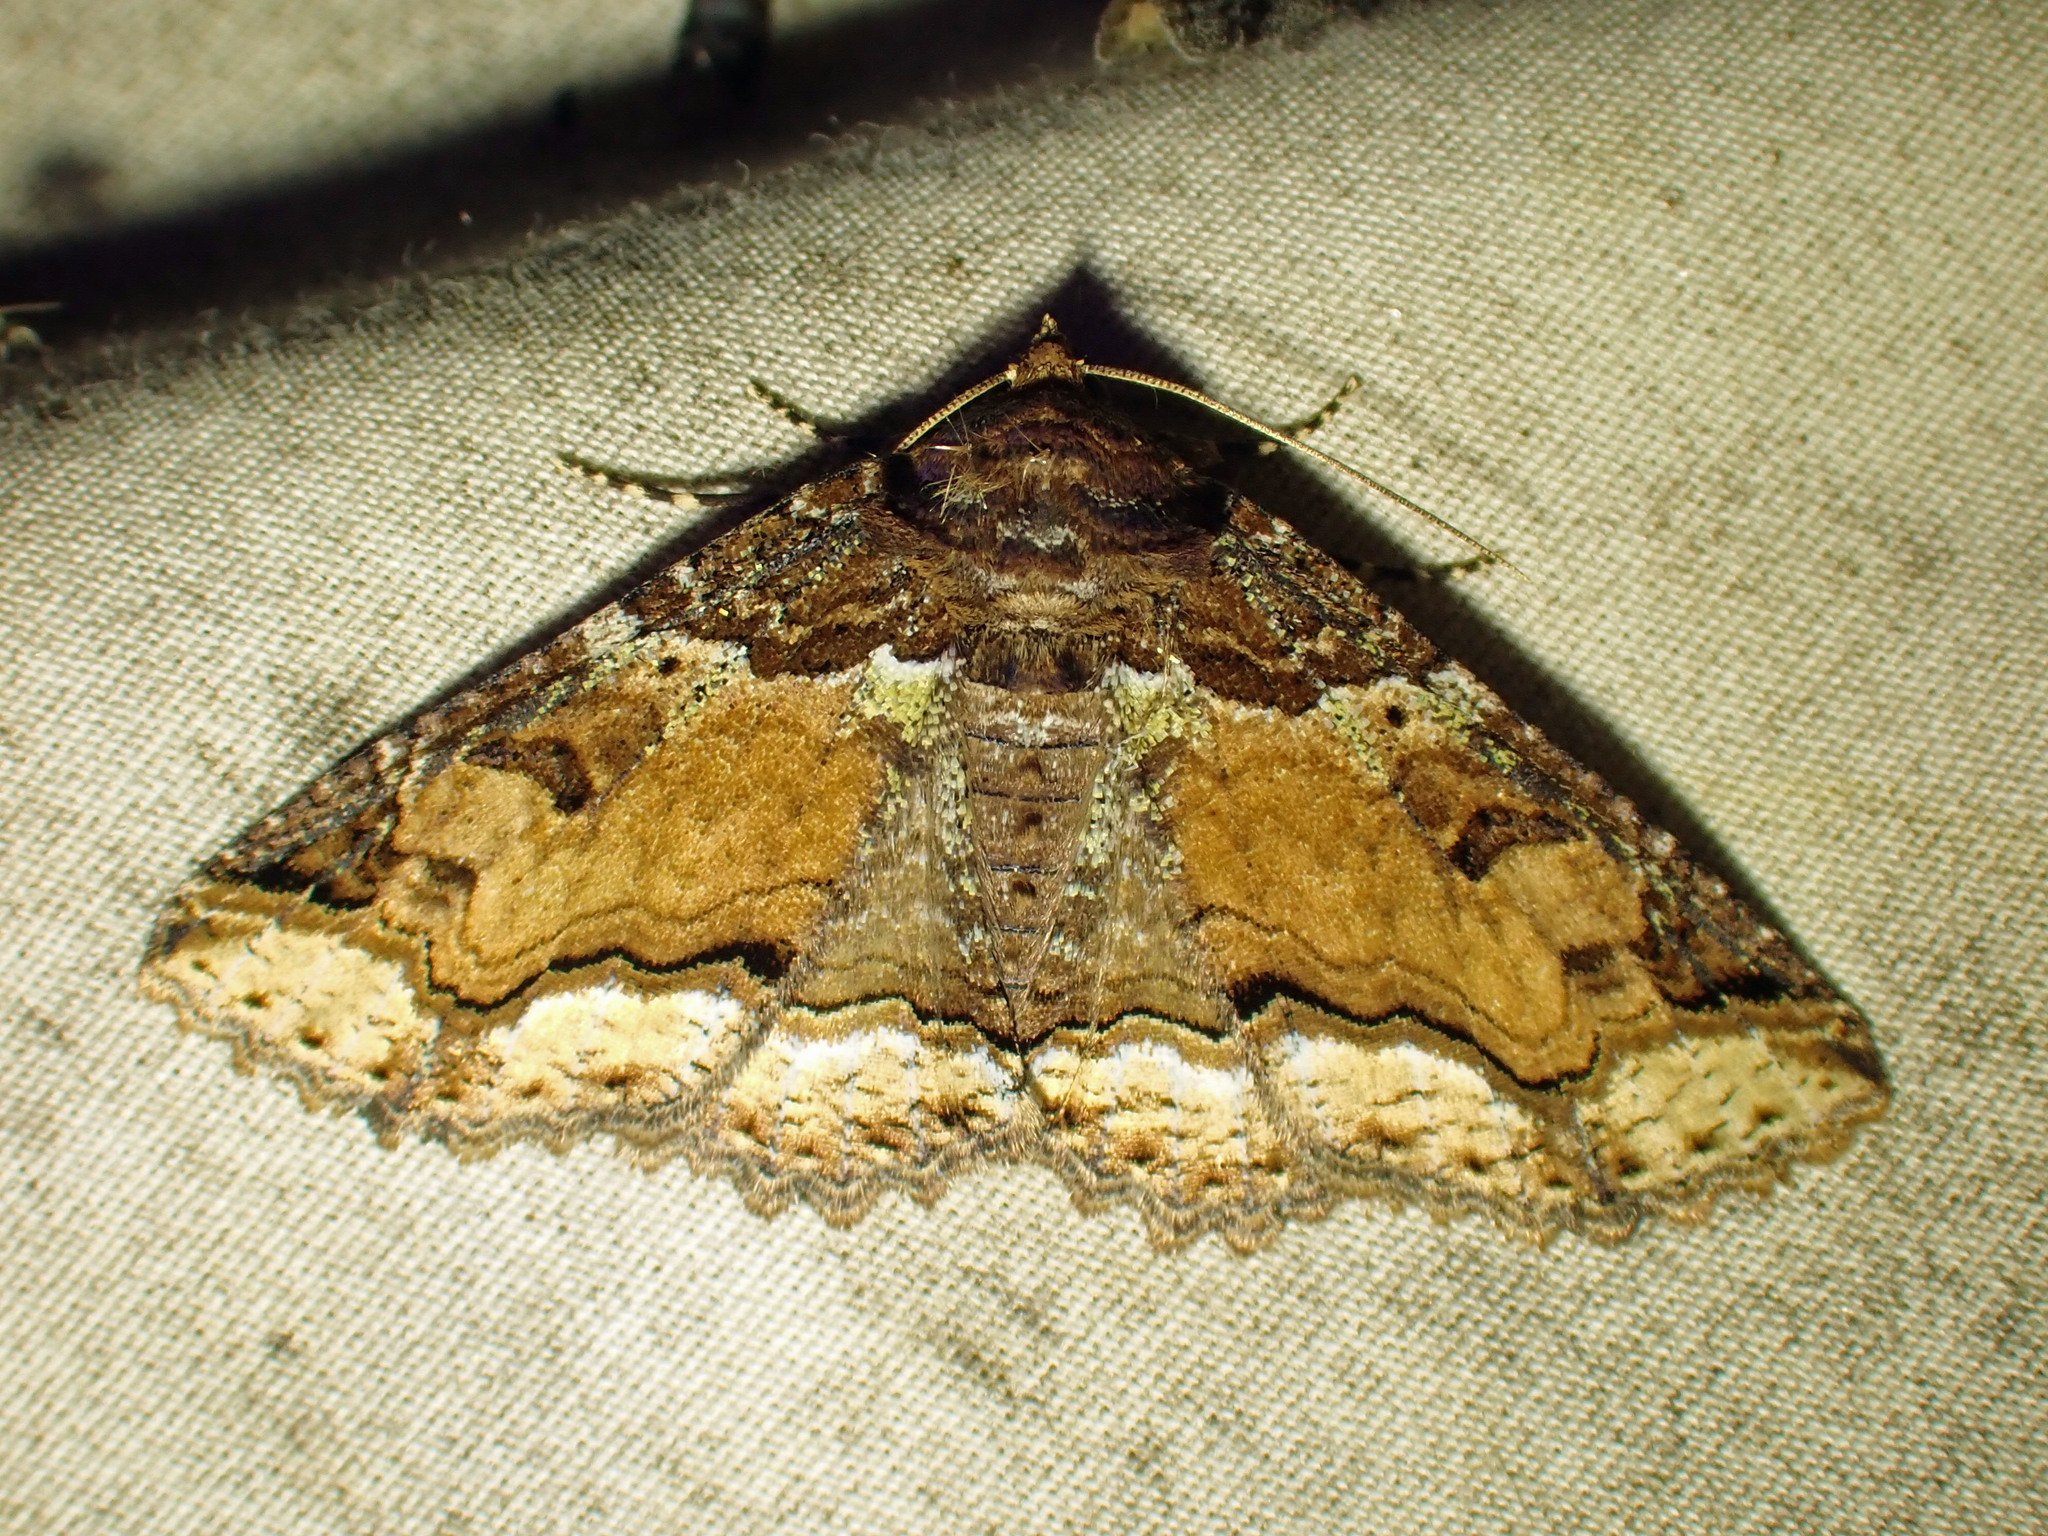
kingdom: Animalia
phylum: Arthropoda
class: Insecta
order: Lepidoptera
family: Erebidae
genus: Zale
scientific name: Zale minerea
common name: Colorful zale moth
